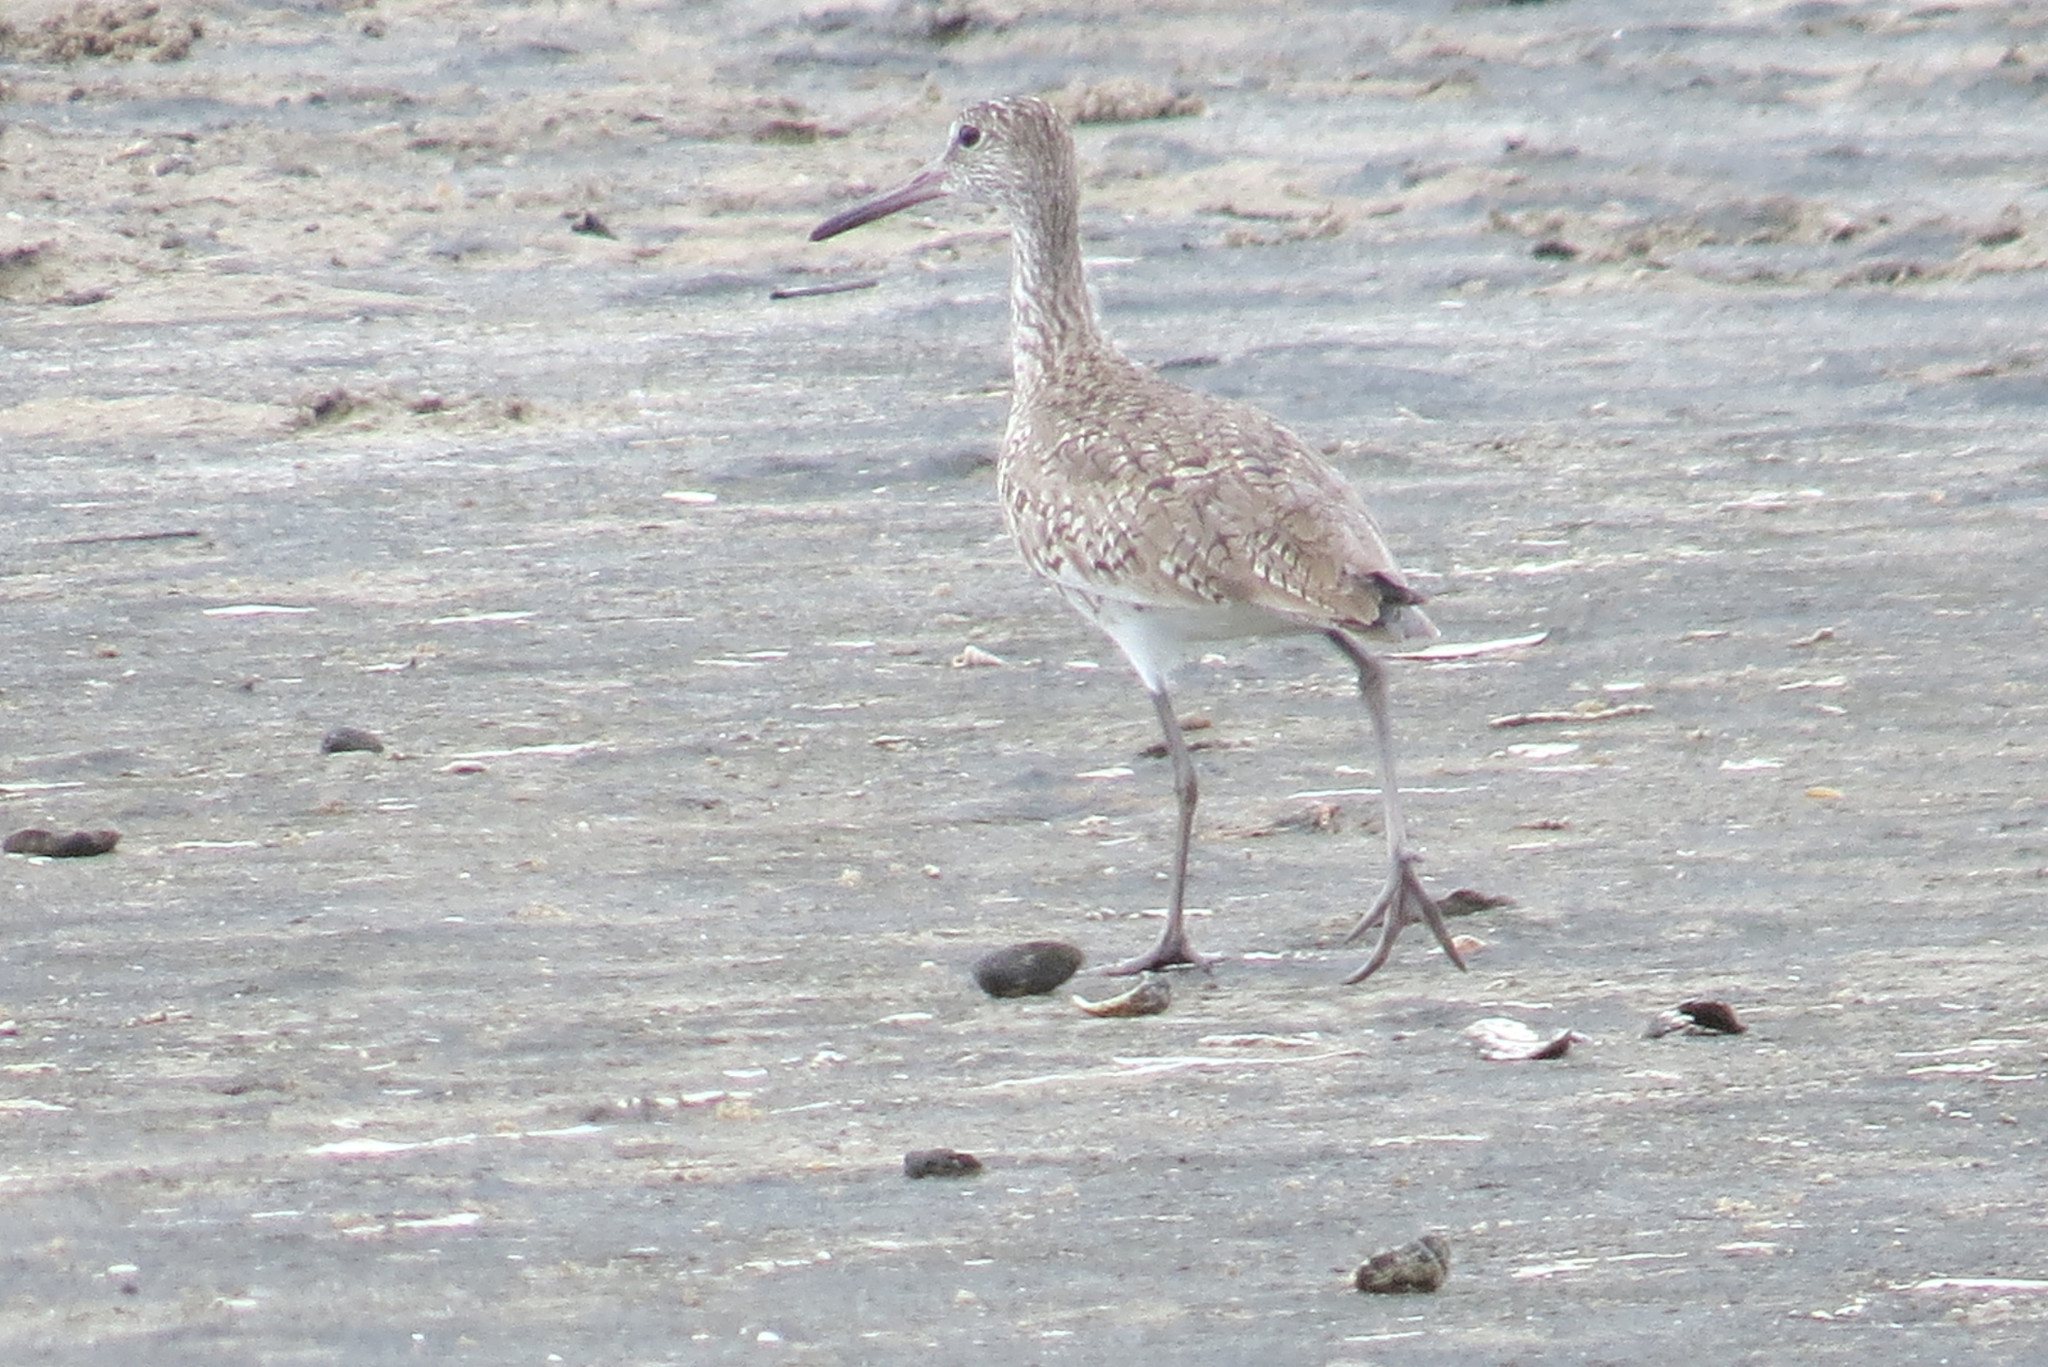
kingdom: Animalia
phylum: Chordata
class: Aves
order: Charadriiformes
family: Scolopacidae
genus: Tringa
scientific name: Tringa semipalmata
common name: Willet
